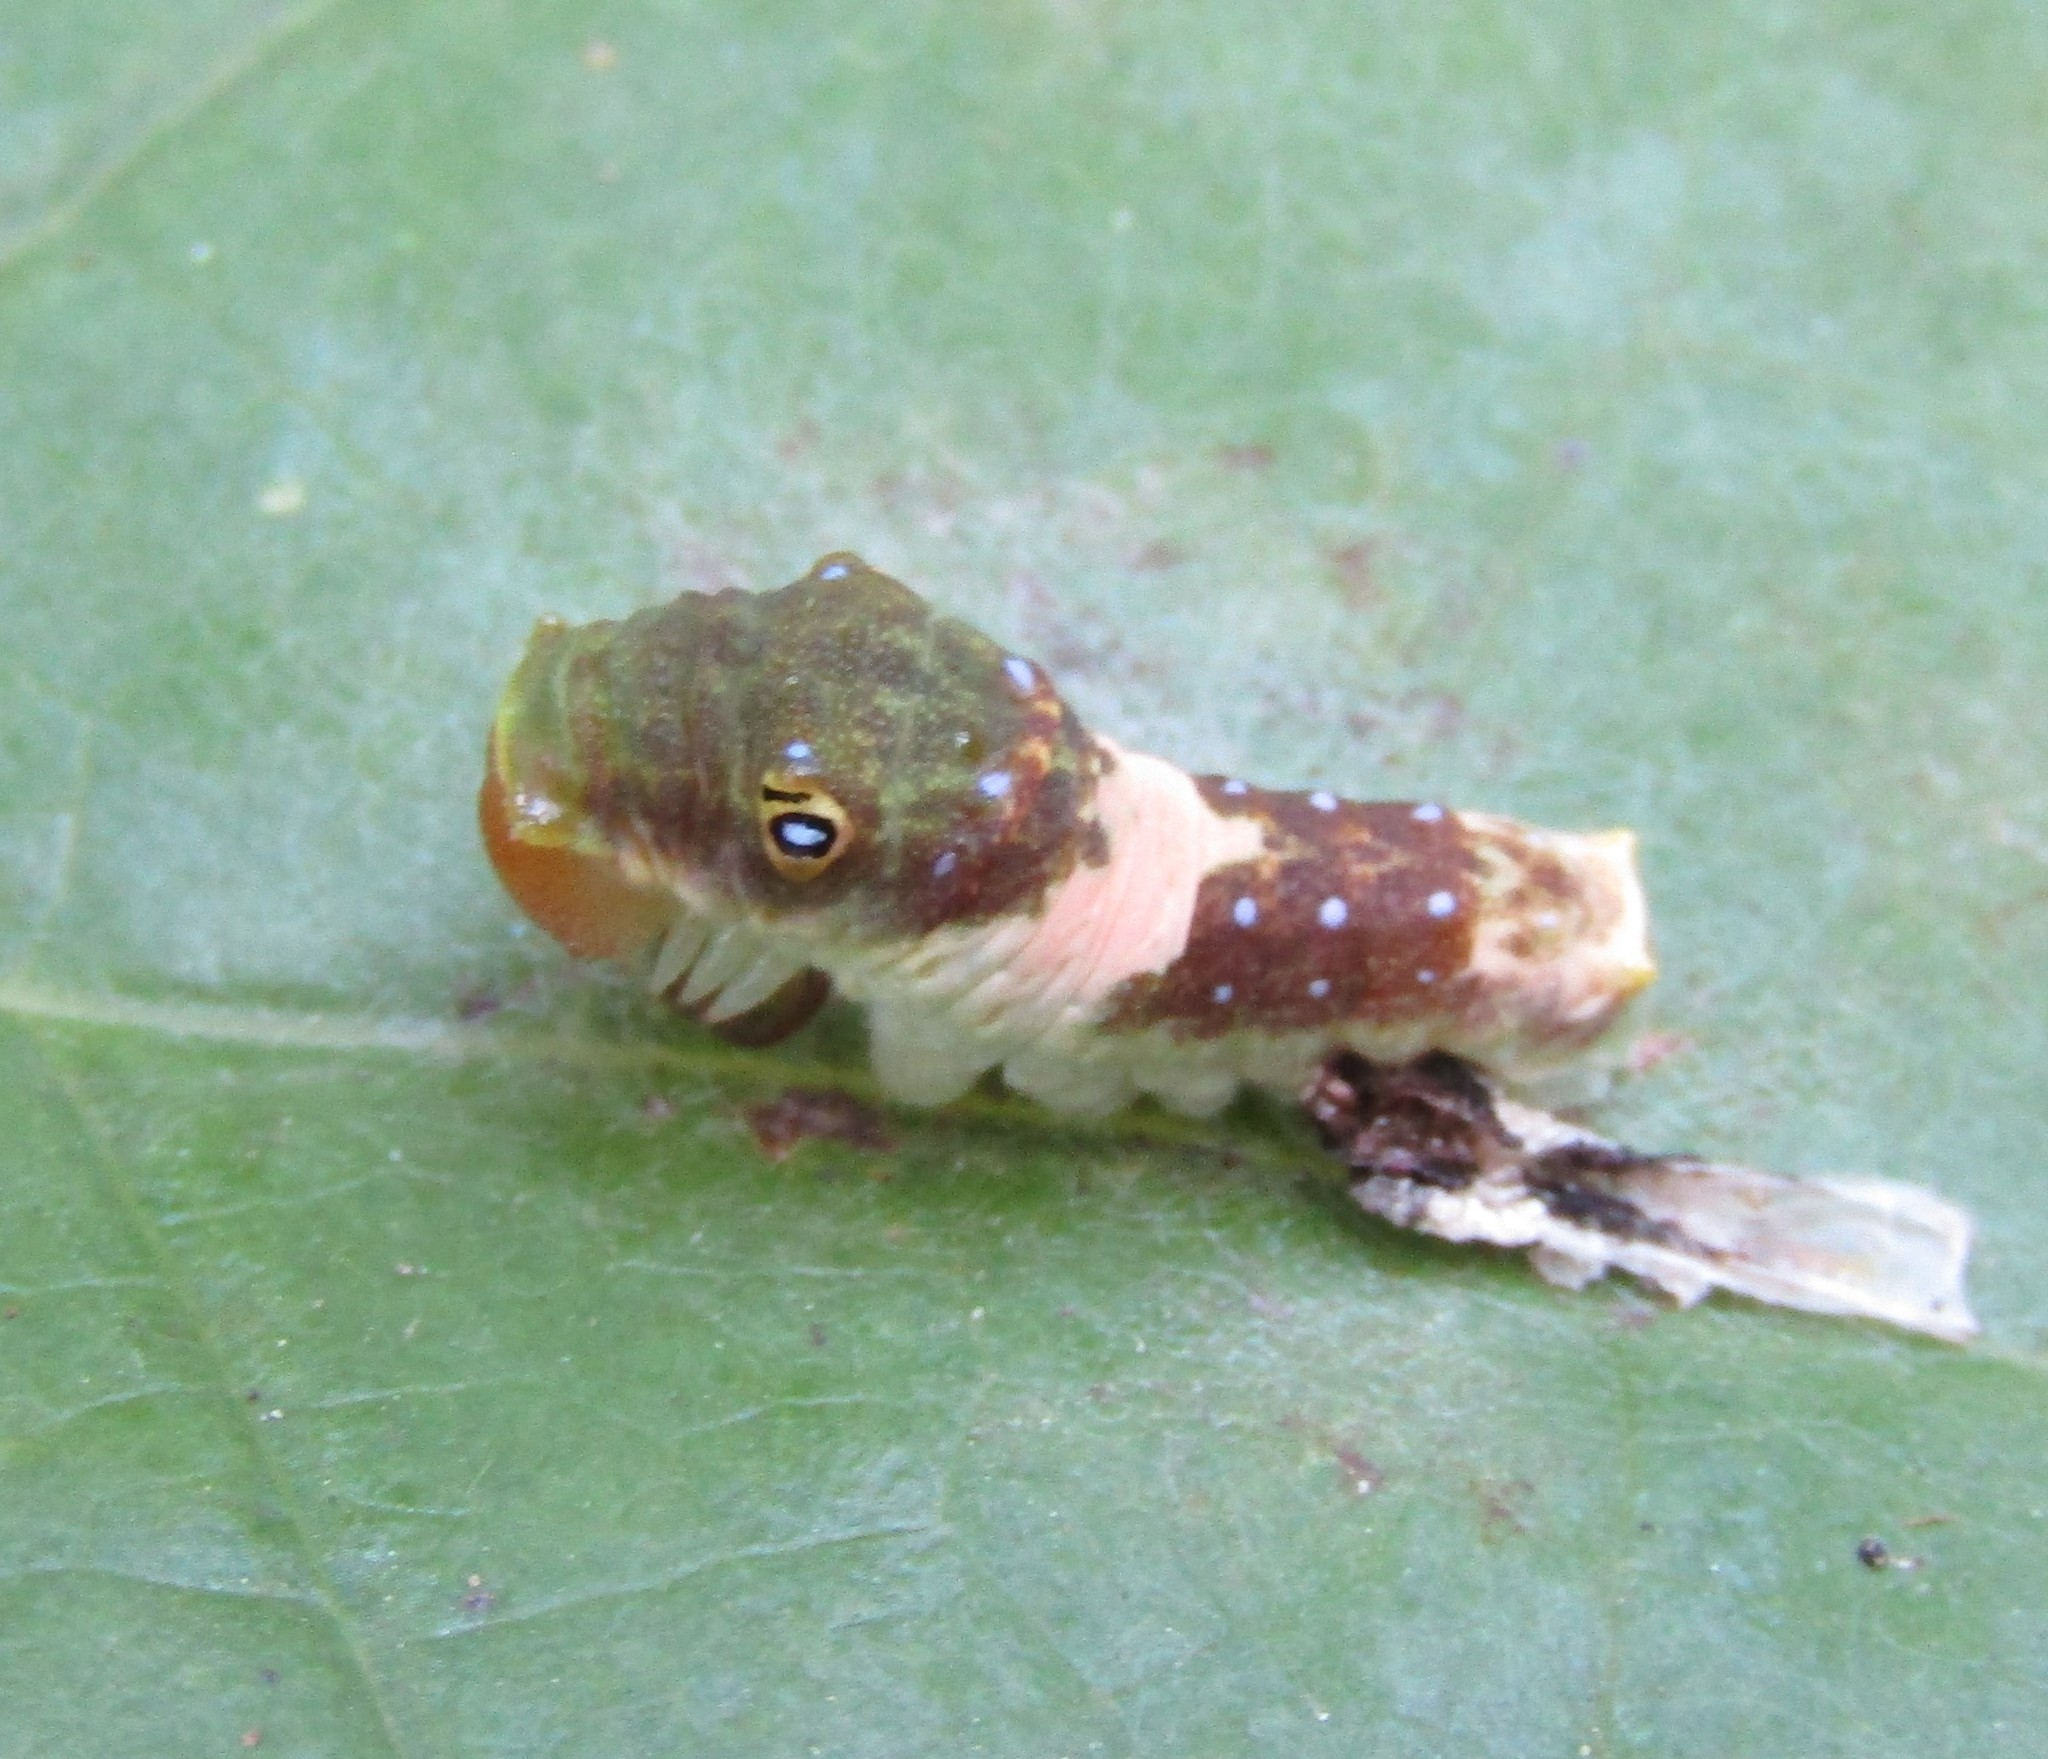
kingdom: Animalia
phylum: Arthropoda
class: Insecta
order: Lepidoptera
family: Papilionidae
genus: Papilio
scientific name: Papilio glaucus
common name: Tiger swallowtail
